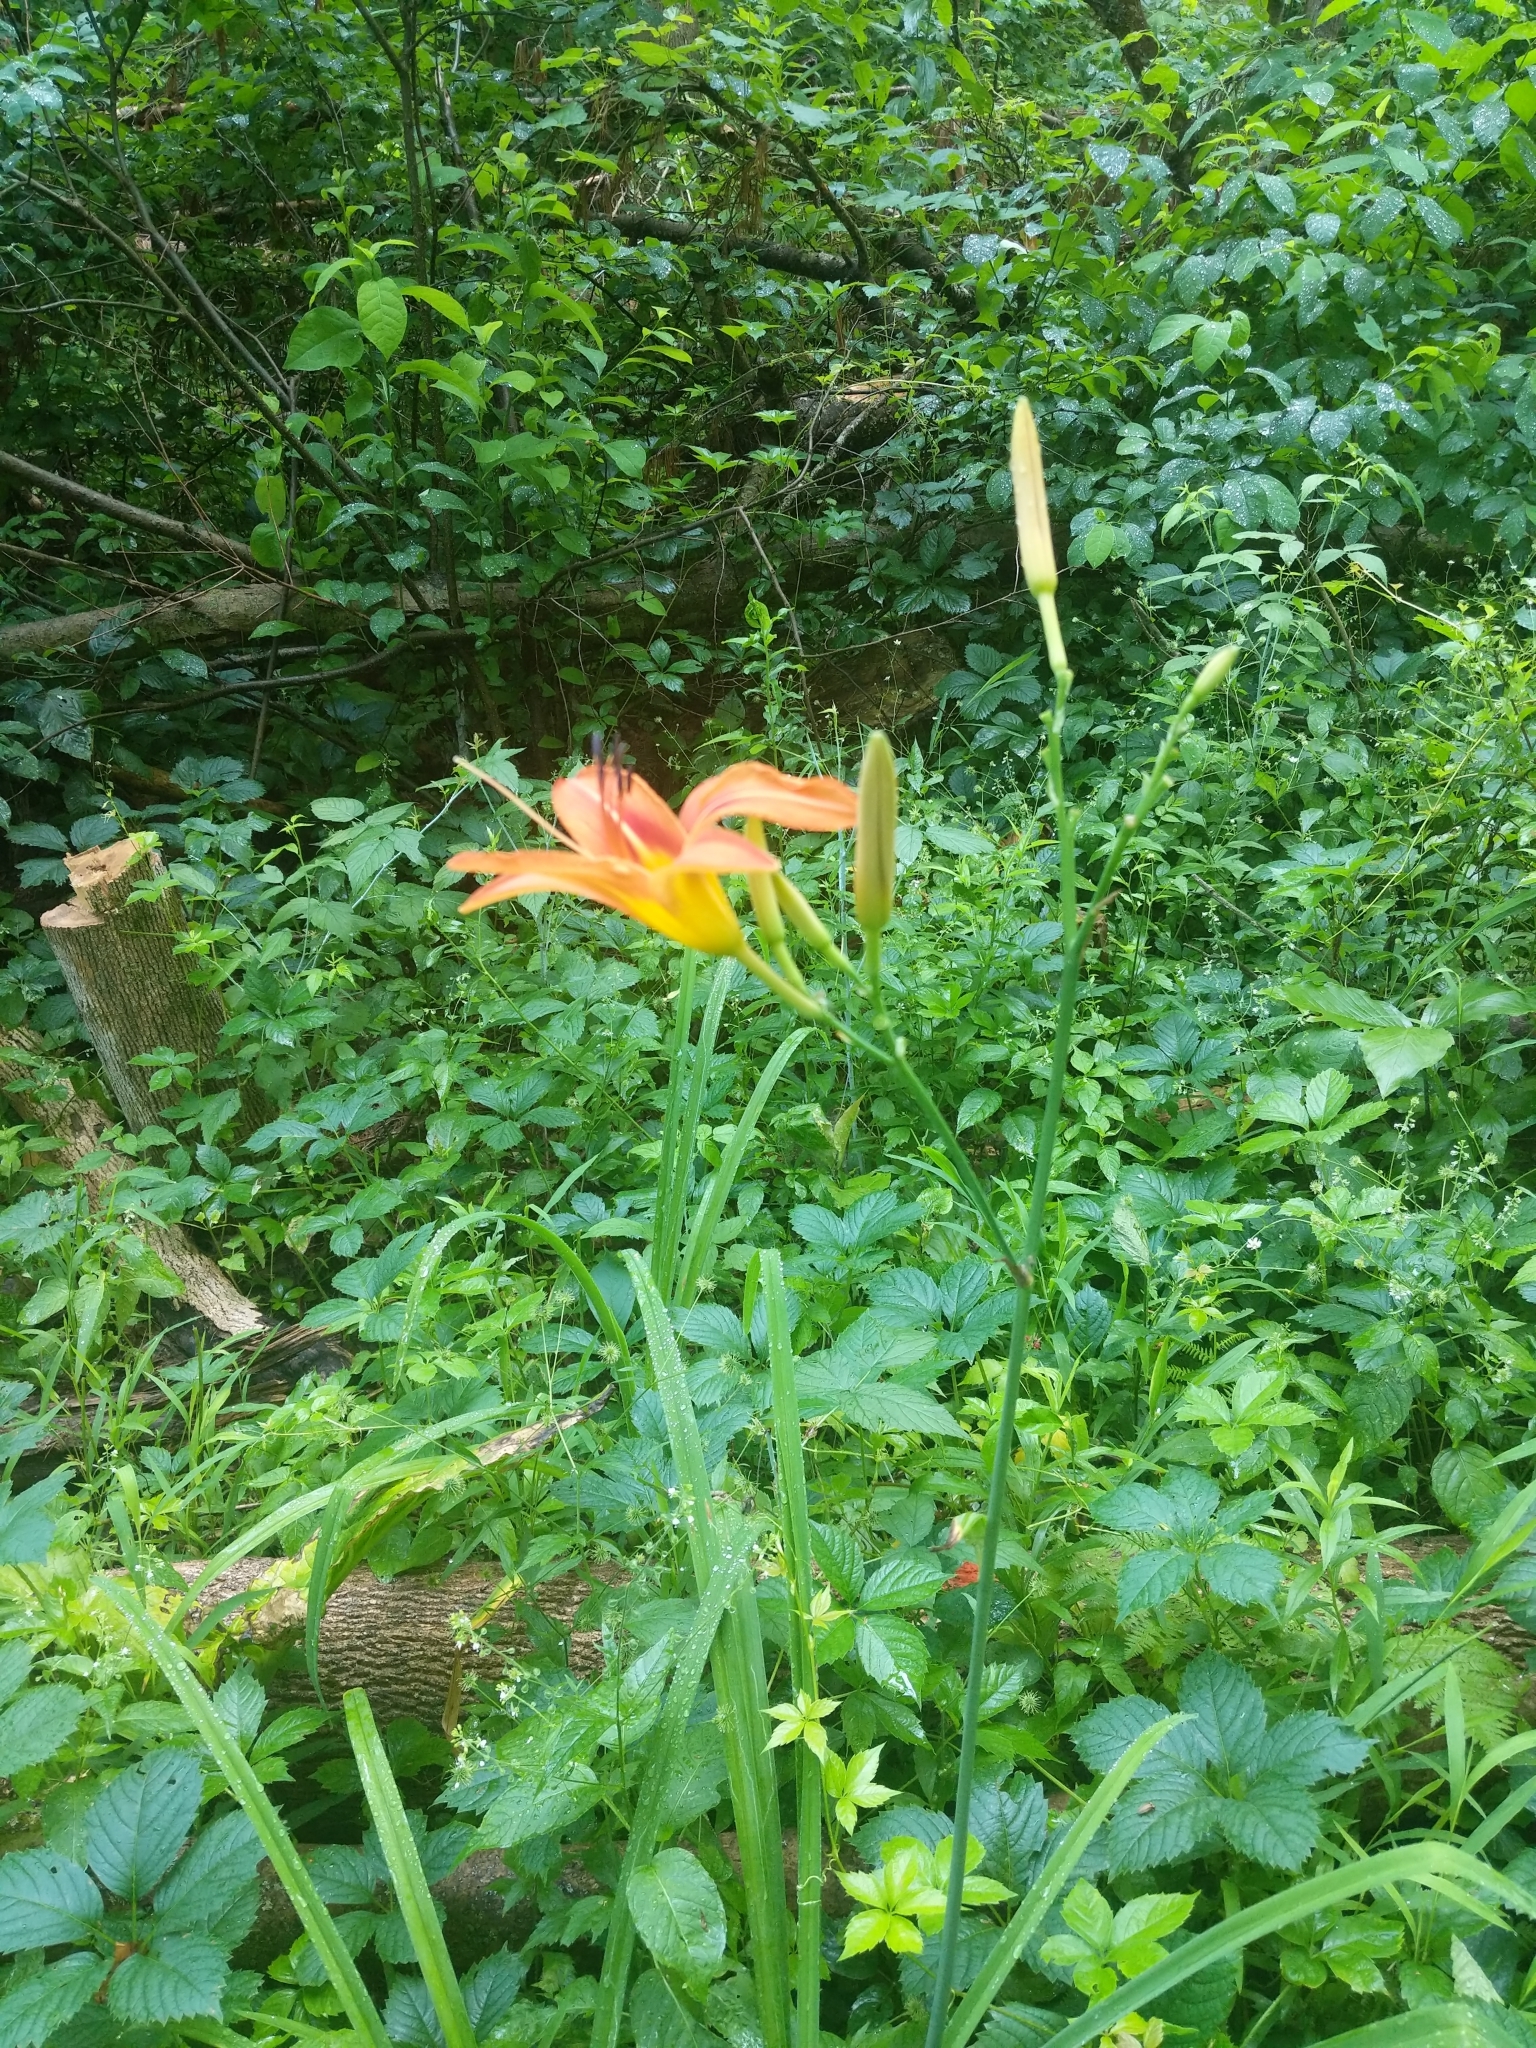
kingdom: Plantae
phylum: Tracheophyta
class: Liliopsida
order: Asparagales
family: Asphodelaceae
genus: Hemerocallis
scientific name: Hemerocallis fulva
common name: Orange day-lily
